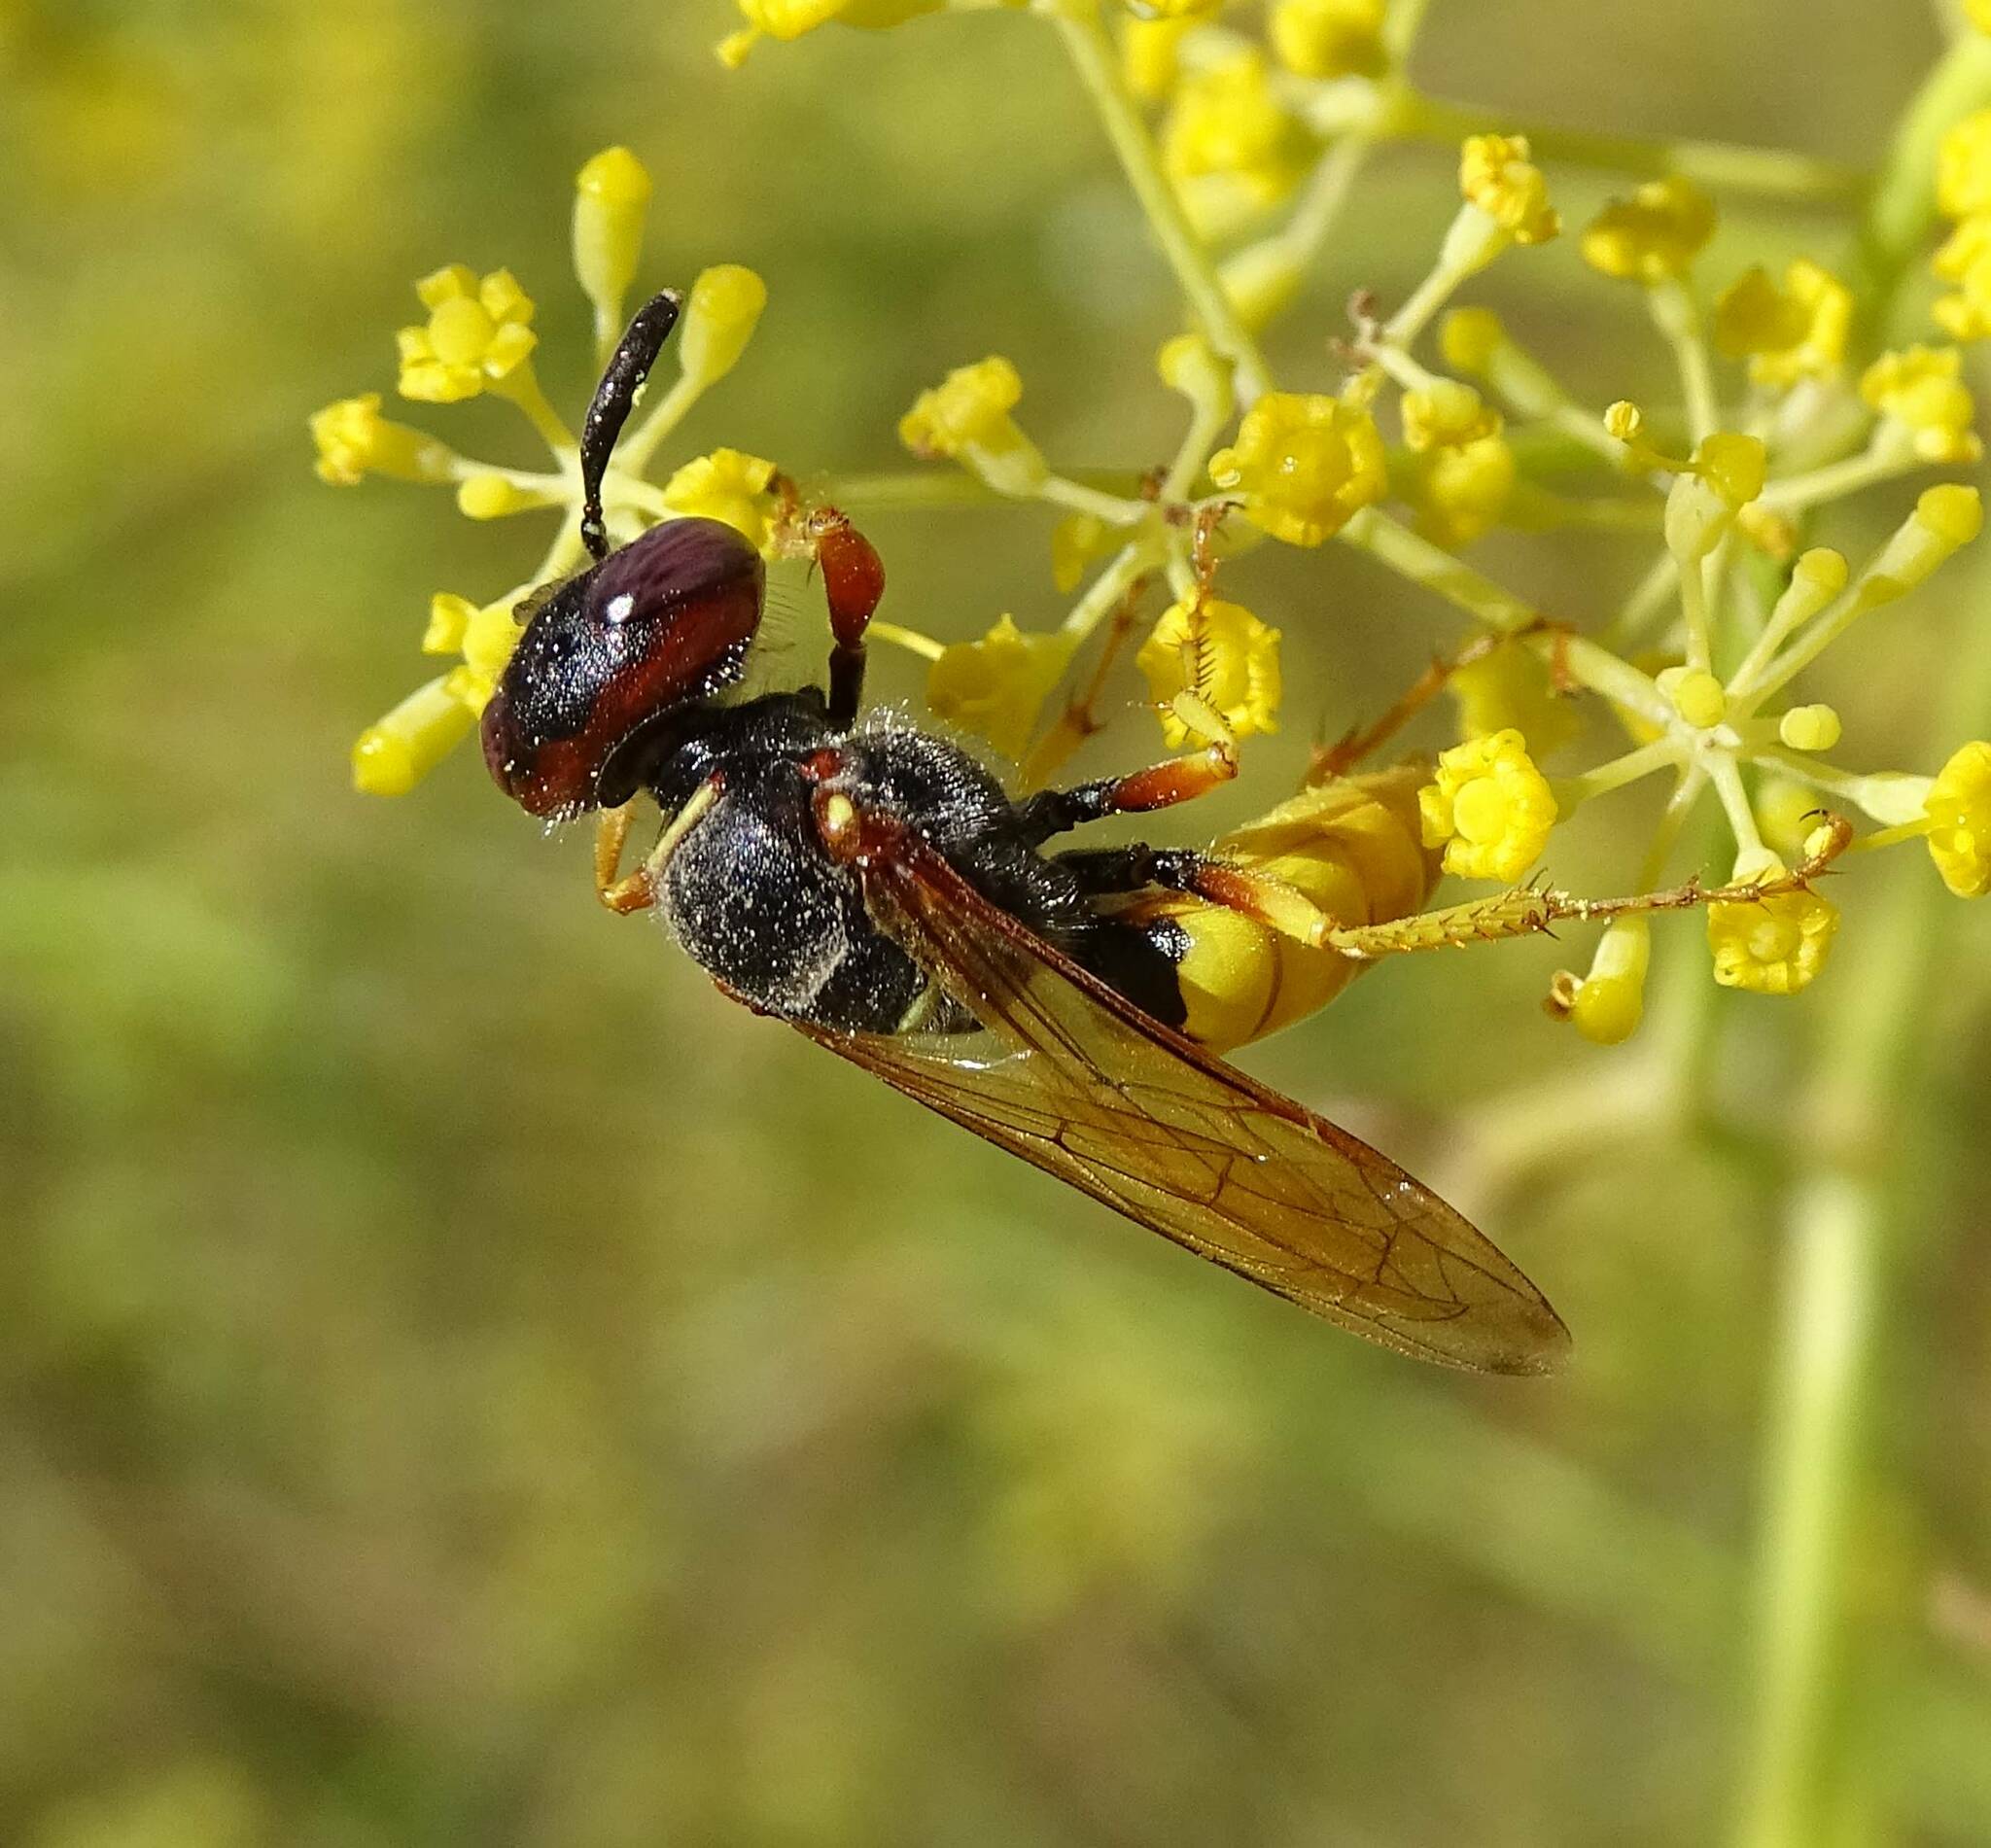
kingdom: Animalia
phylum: Arthropoda
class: Insecta
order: Hymenoptera
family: Crabronidae
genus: Philanthus
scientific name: Philanthus triangulum
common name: Bee wolf
